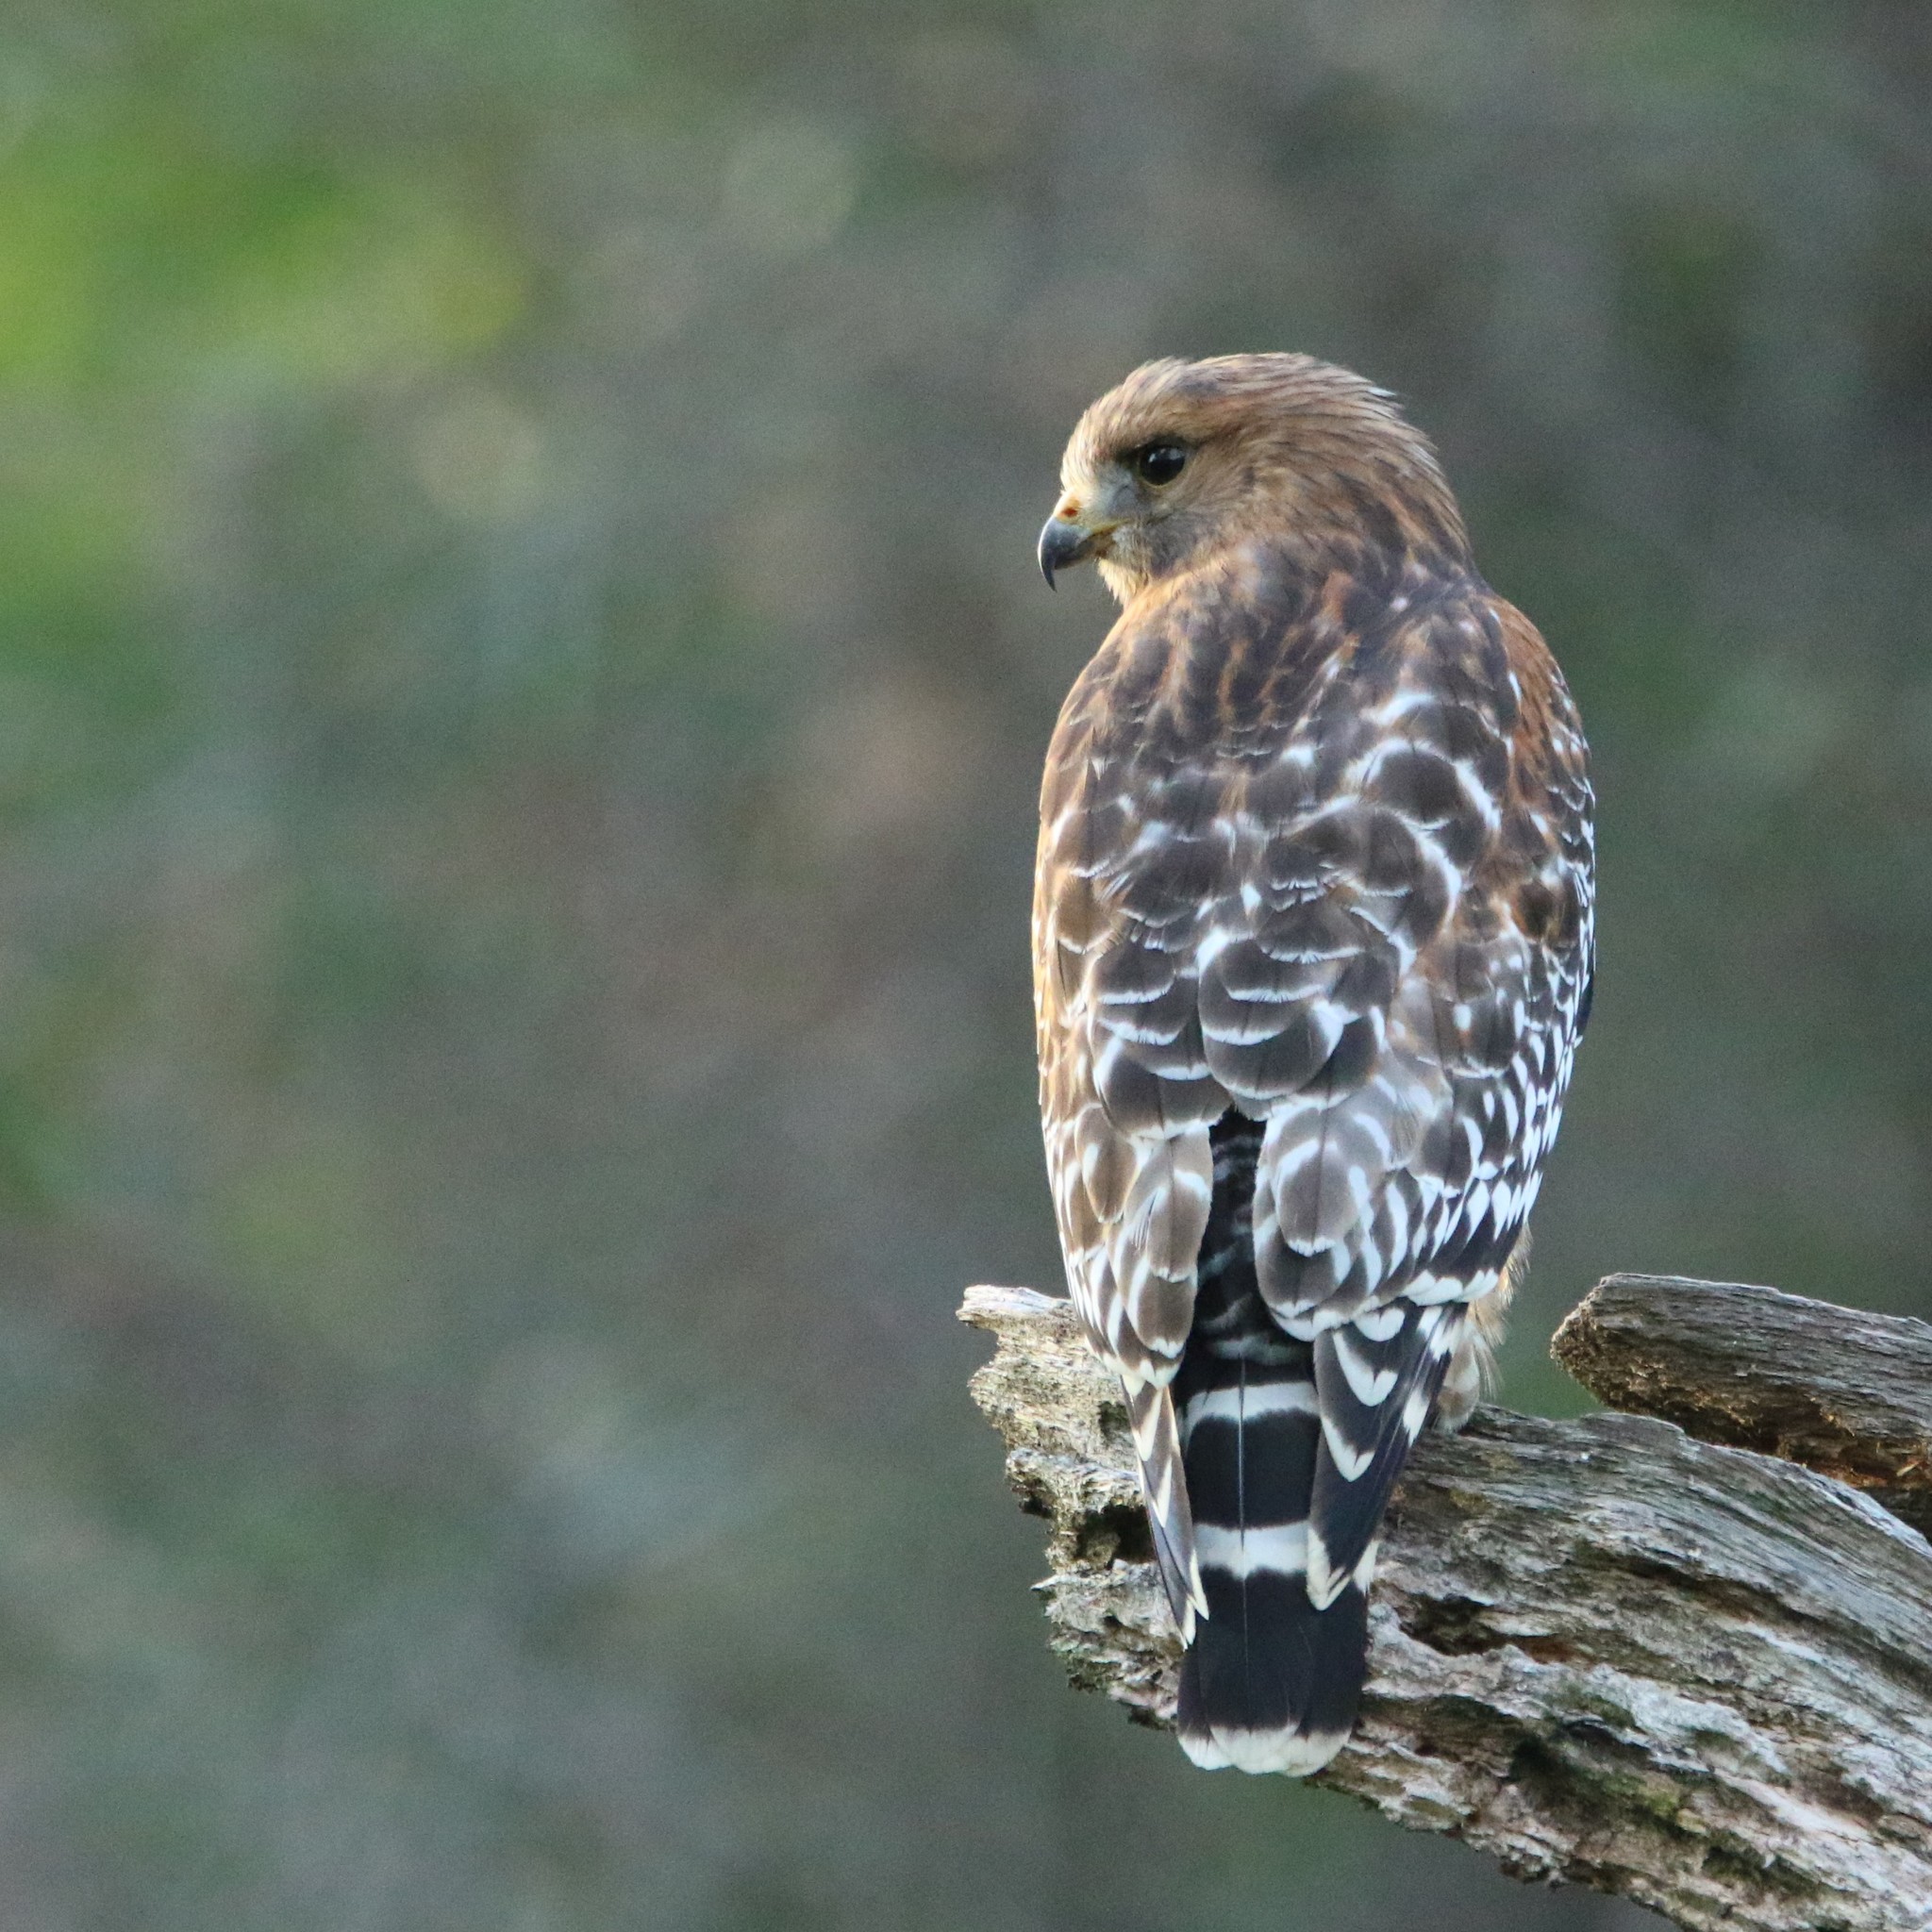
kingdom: Animalia
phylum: Chordata
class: Aves
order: Accipitriformes
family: Accipitridae
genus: Buteo
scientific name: Buteo lineatus
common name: Red-shouldered hawk
